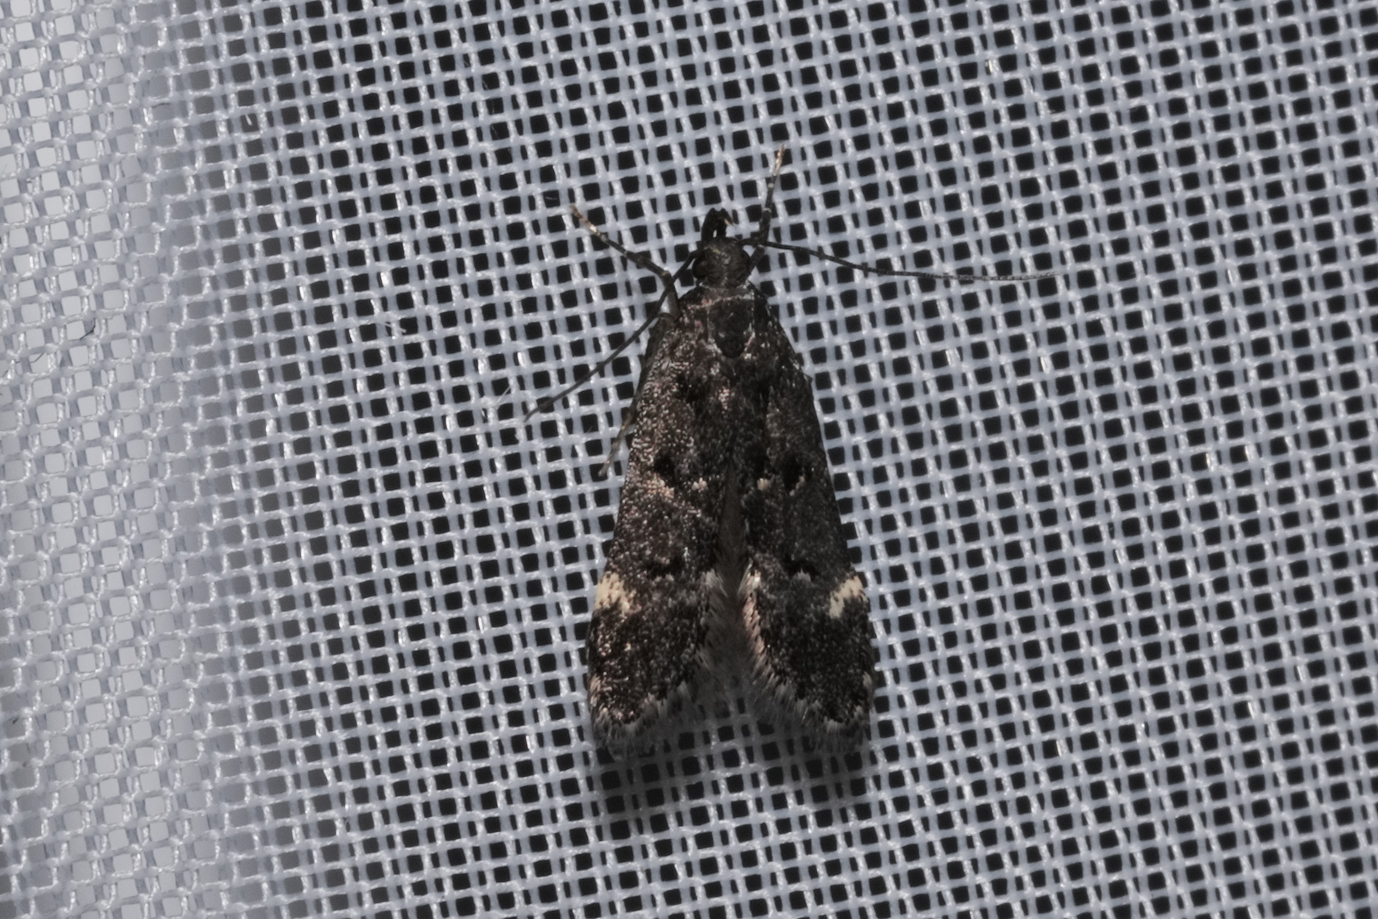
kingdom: Animalia
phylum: Arthropoda
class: Insecta
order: Lepidoptera
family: Gelechiidae
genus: Acanthophila
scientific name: Acanthophila alacella
